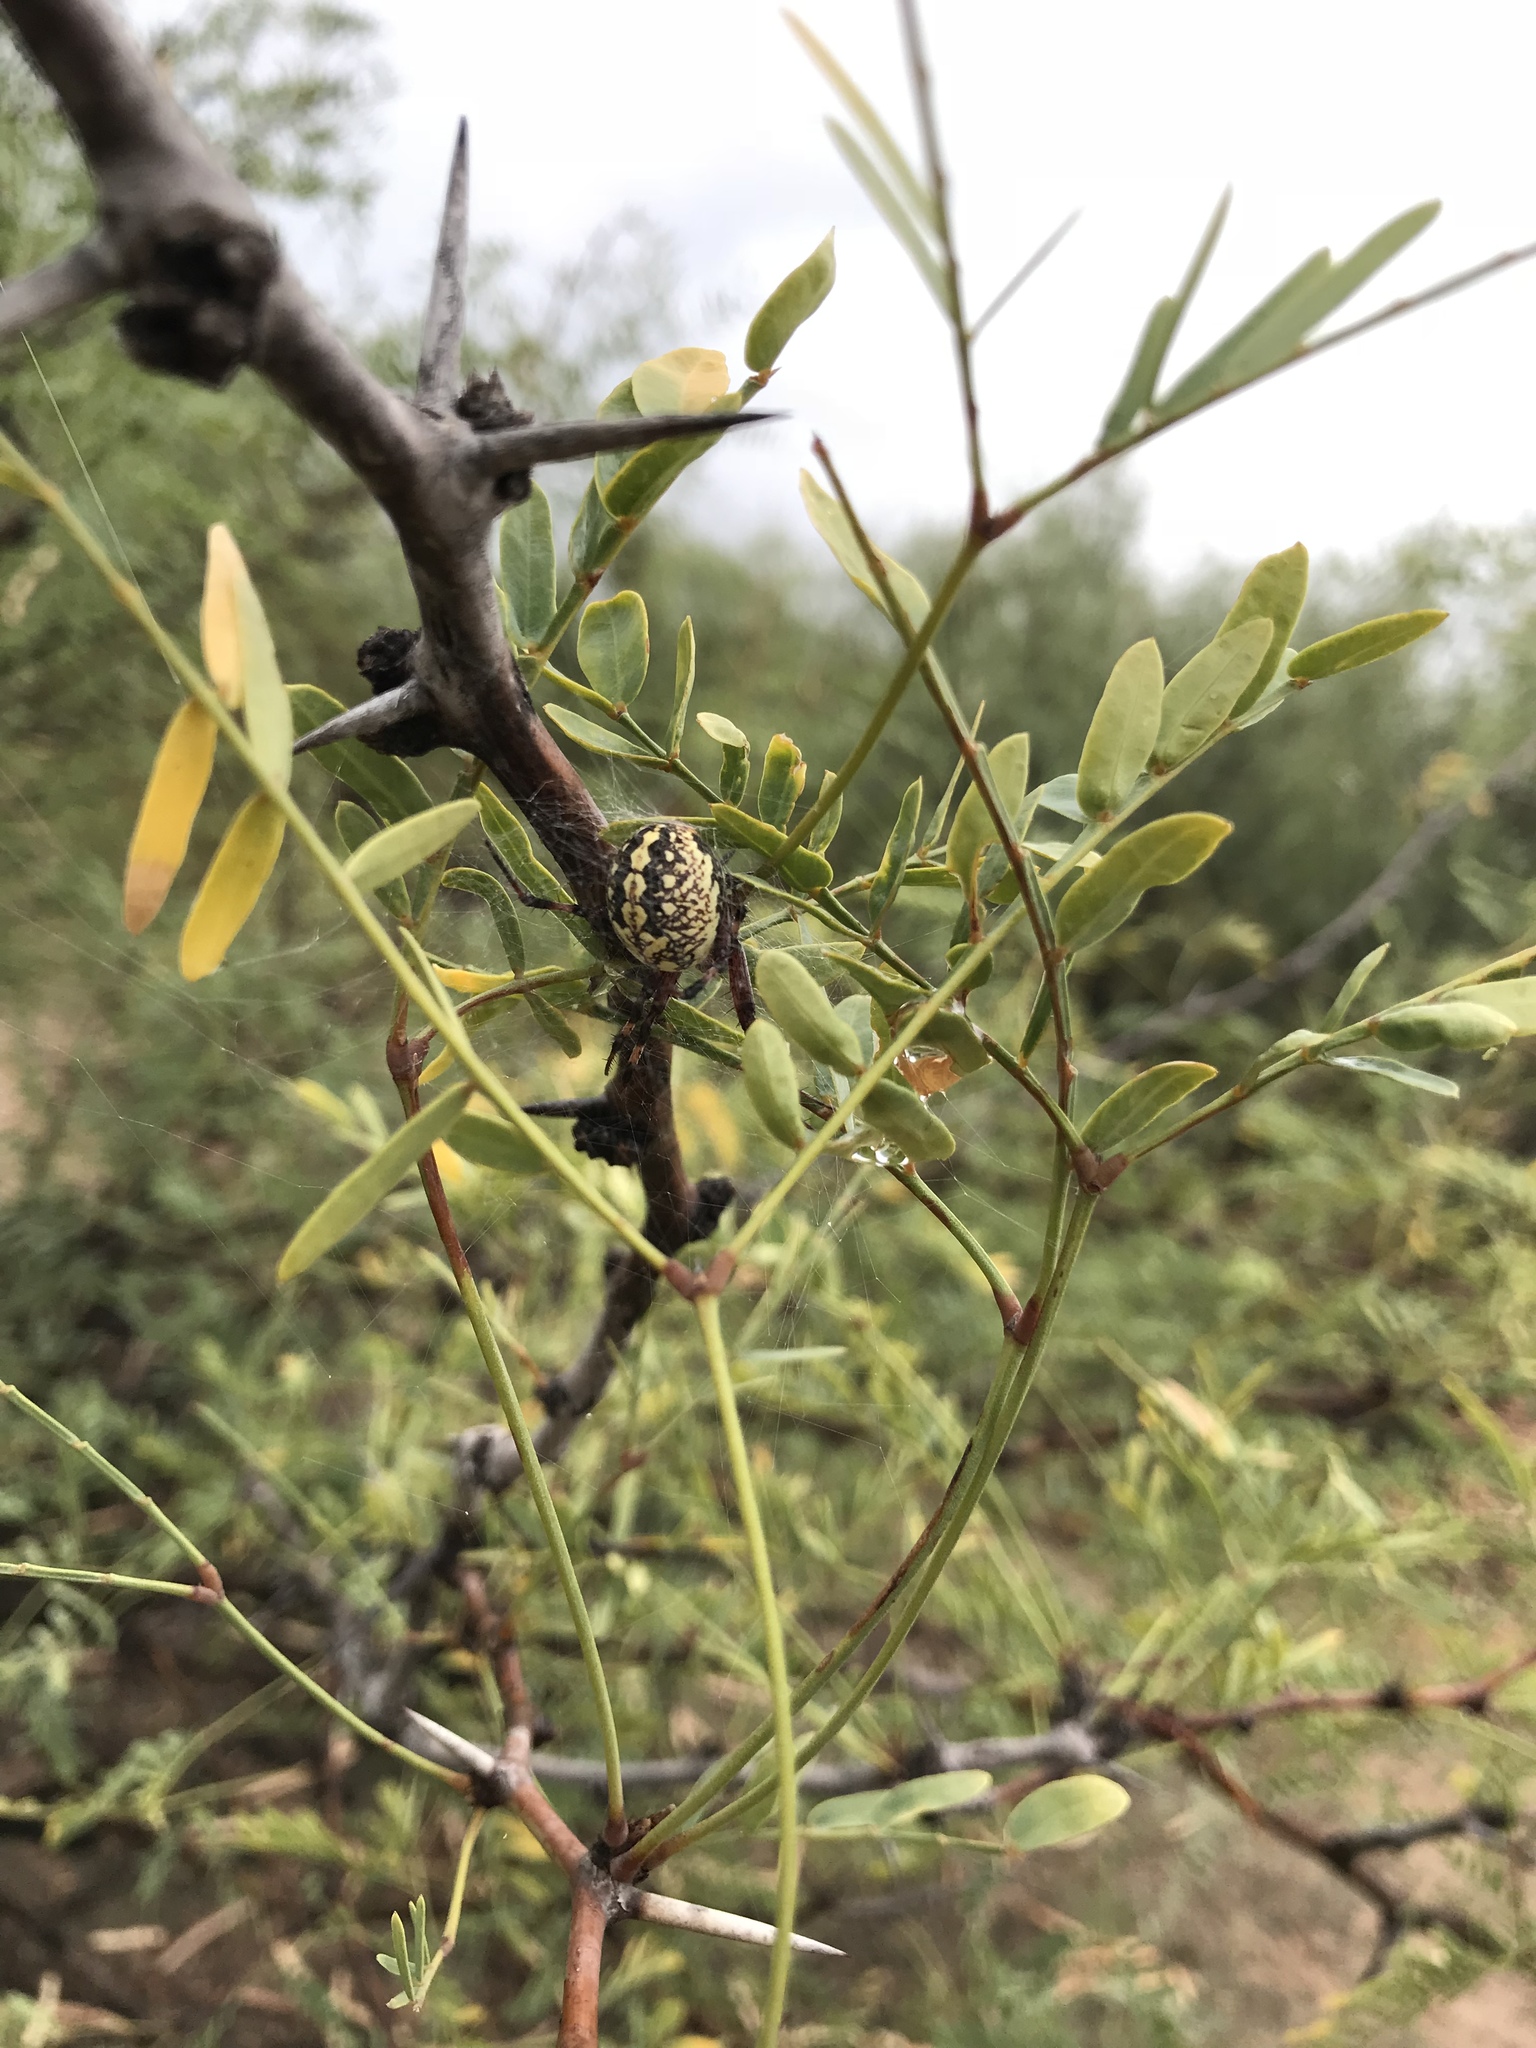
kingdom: Animalia
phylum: Arthropoda
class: Arachnida
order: Araneae
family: Araneidae
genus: Neoscona
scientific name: Neoscona oaxacensis
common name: Orb weavers
